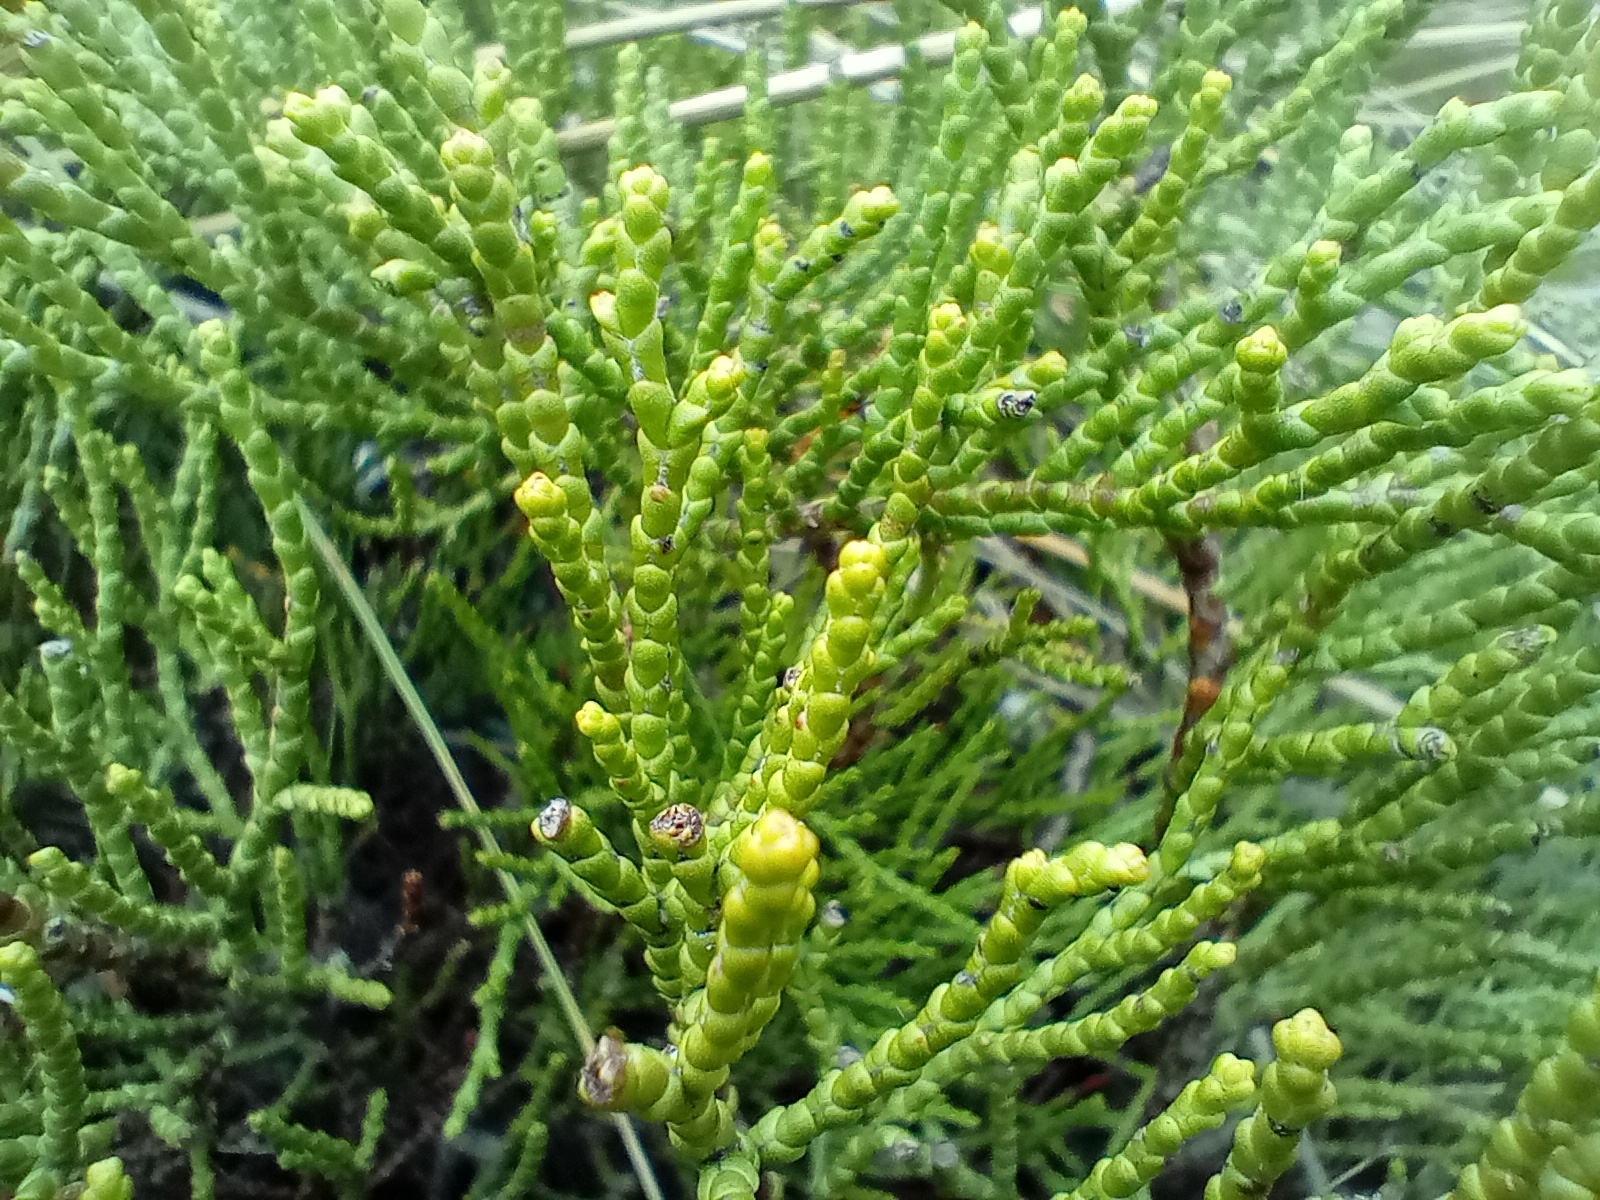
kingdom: Plantae
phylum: Tracheophyta
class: Magnoliopsida
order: Lamiales
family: Plantaginaceae
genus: Veronica
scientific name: Veronica propinqua
